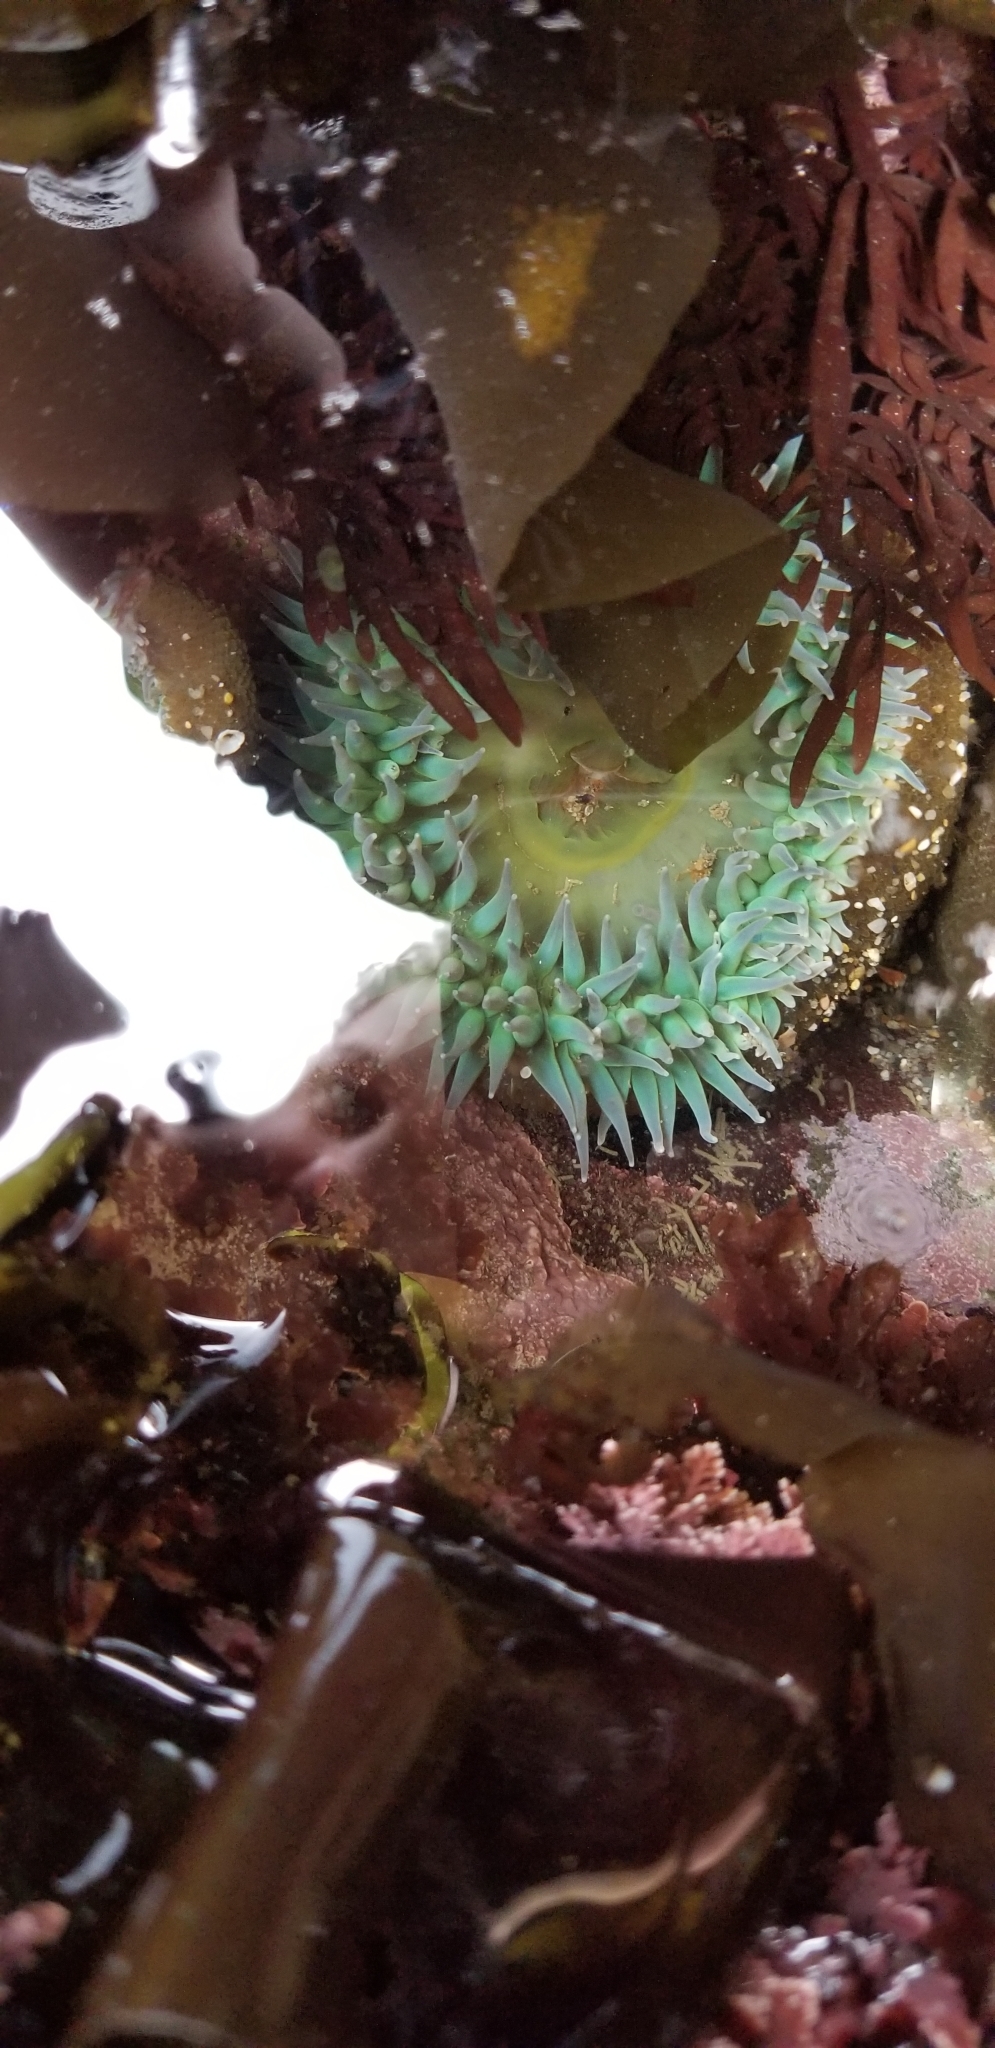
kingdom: Animalia
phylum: Cnidaria
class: Anthozoa
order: Actiniaria
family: Actiniidae
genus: Anthopleura
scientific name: Anthopleura xanthogrammica
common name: Giant green anemone
